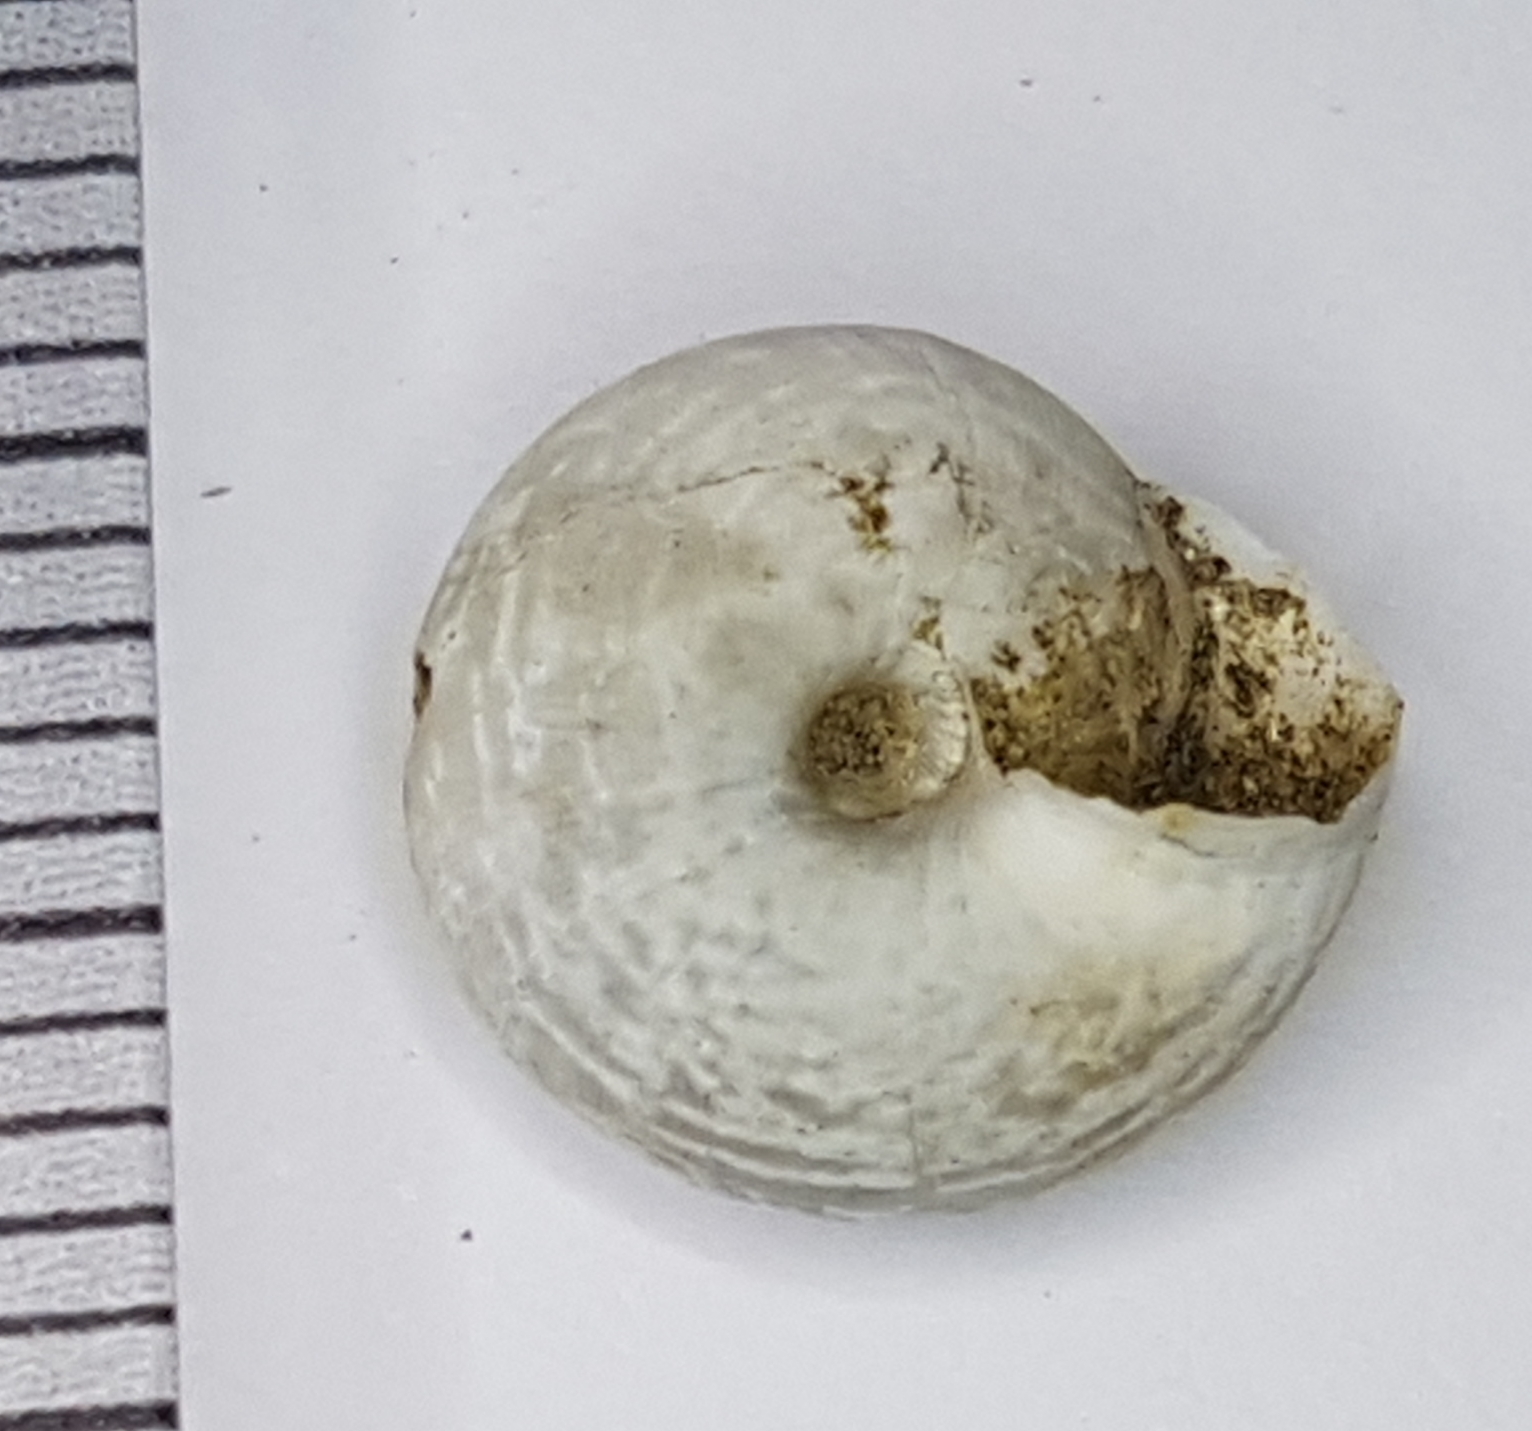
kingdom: Animalia
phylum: Mollusca
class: Gastropoda
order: Stylommatophora
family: Geomitridae
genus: Xeroplexa
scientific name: Xeroplexa arrabidensis
